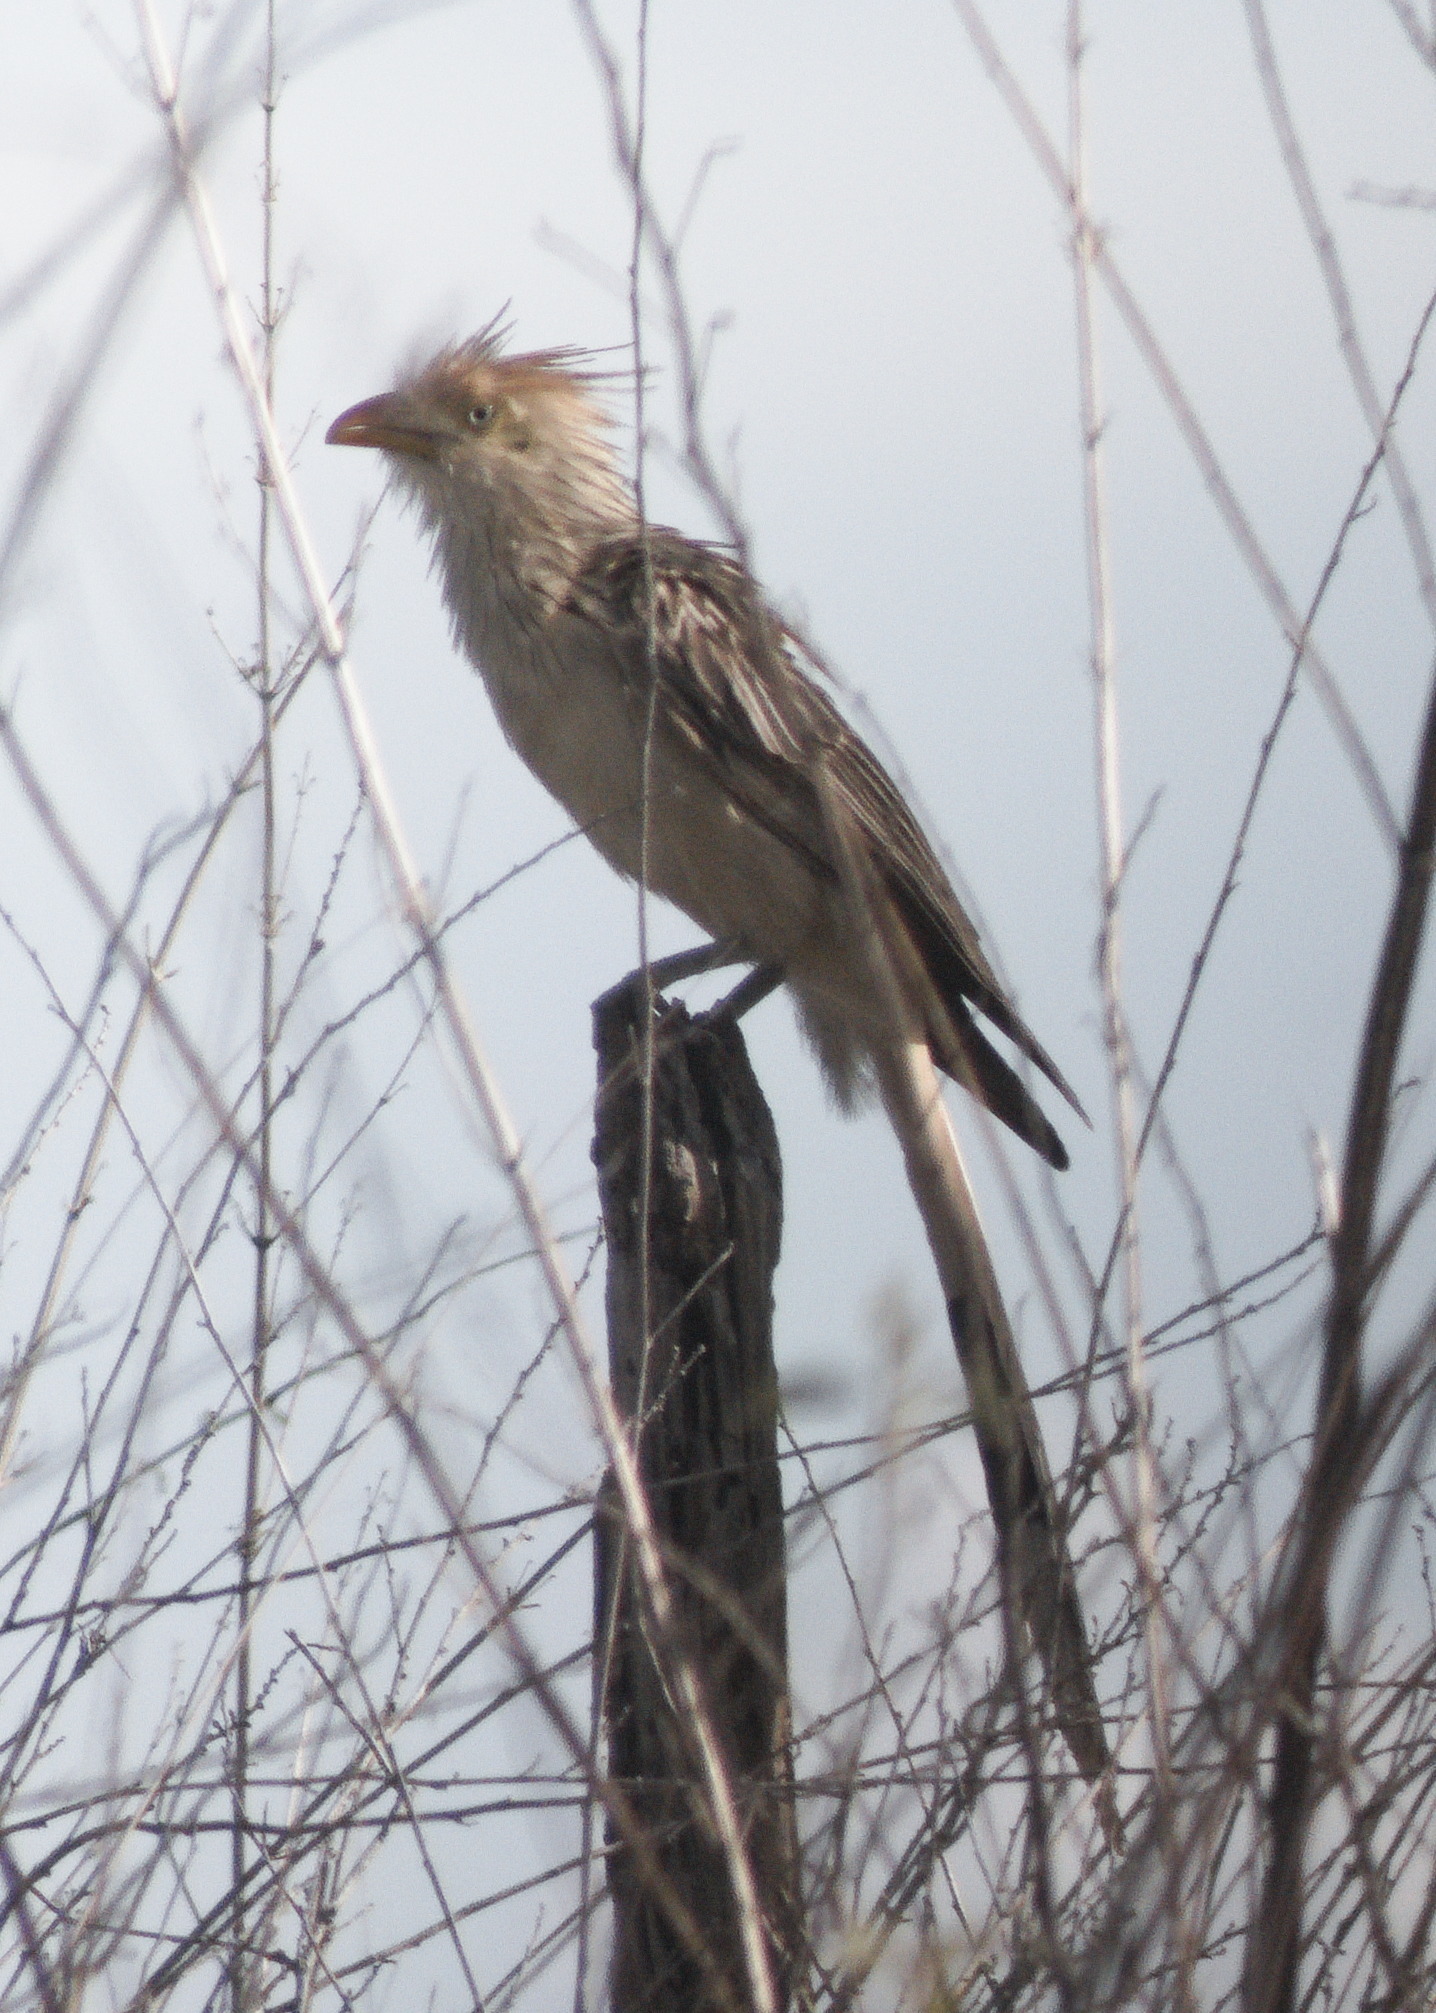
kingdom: Animalia
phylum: Chordata
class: Aves
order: Cuculiformes
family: Cuculidae
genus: Guira
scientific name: Guira guira
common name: Guira cuckoo
